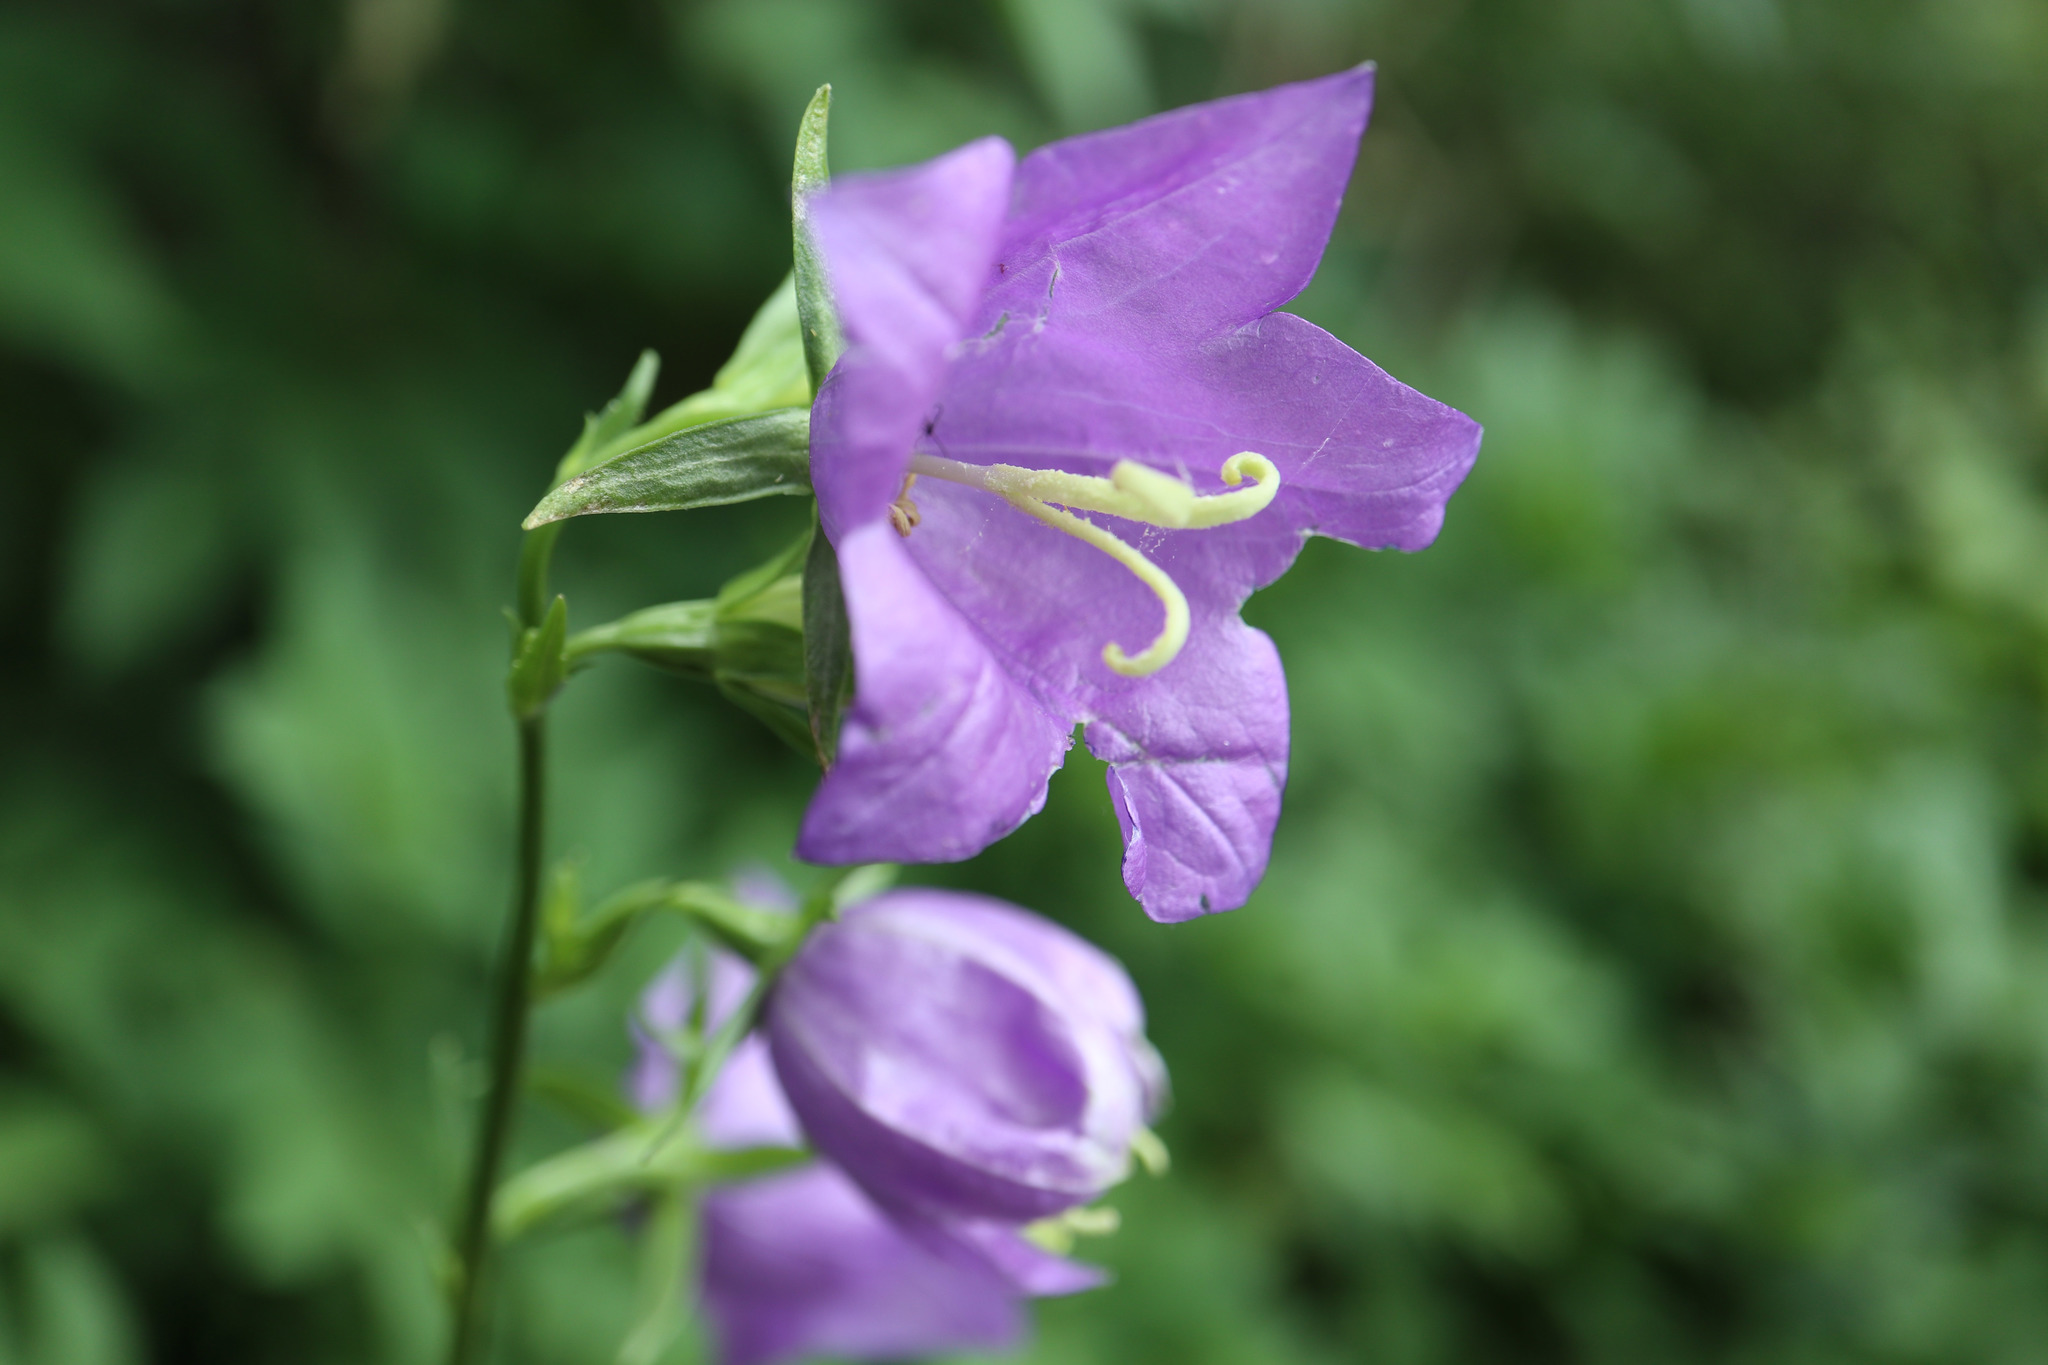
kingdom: Plantae
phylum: Tracheophyta
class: Magnoliopsida
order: Asterales
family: Campanulaceae
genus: Campanula
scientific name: Campanula persicifolia
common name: Peach-leaved bellflower
